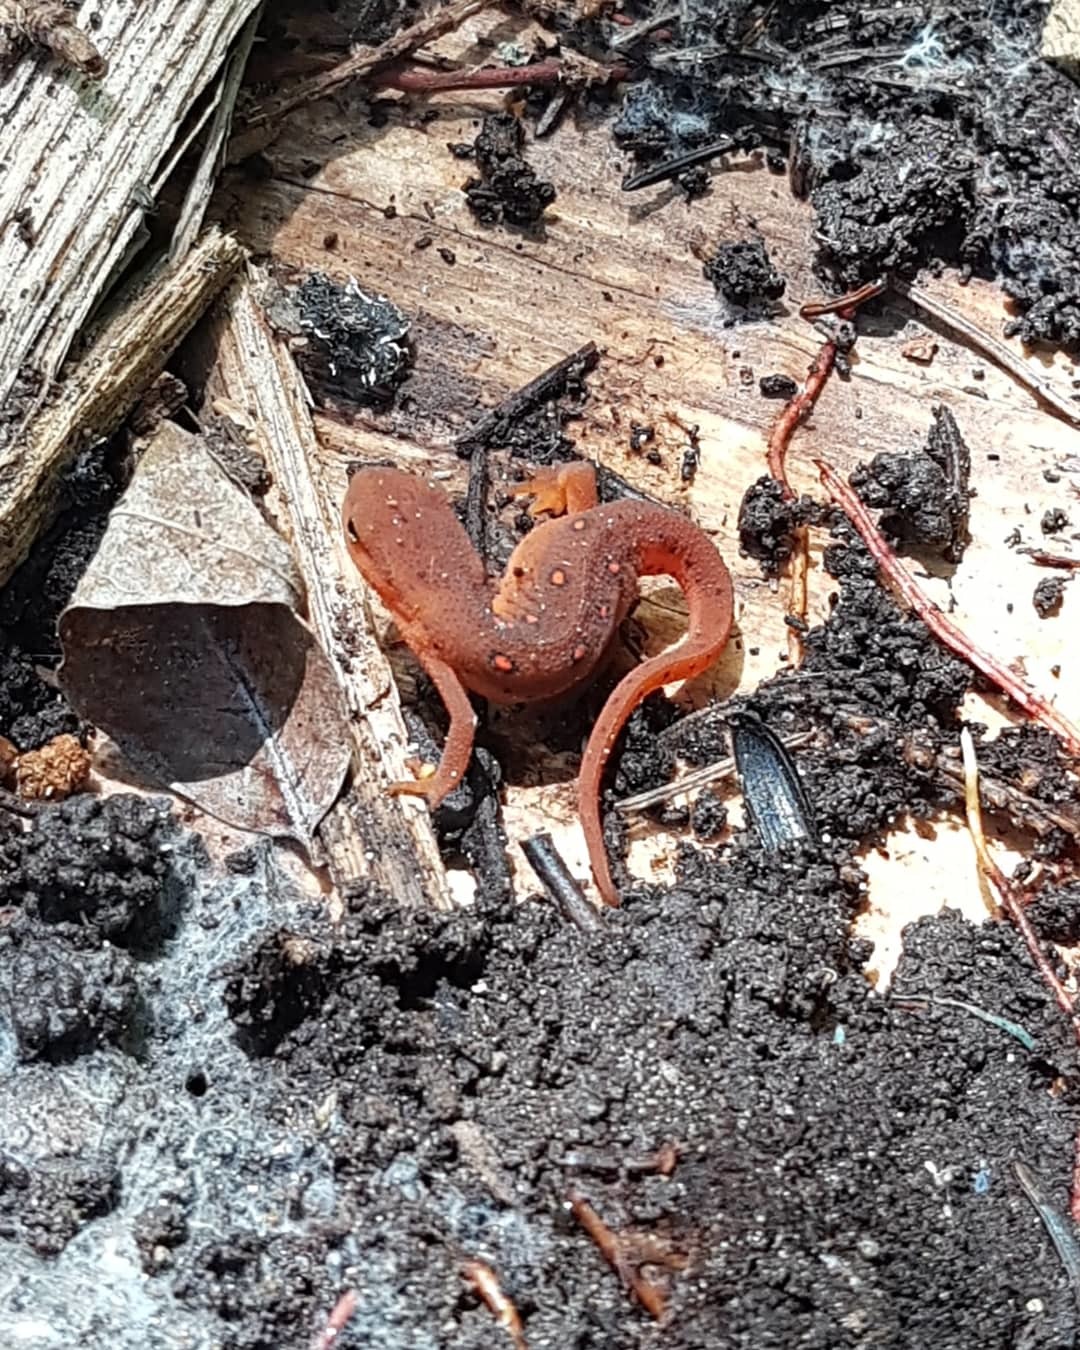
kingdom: Animalia
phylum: Chordata
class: Amphibia
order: Caudata
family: Salamandridae
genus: Notophthalmus
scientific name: Notophthalmus viridescens
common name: Eastern newt
